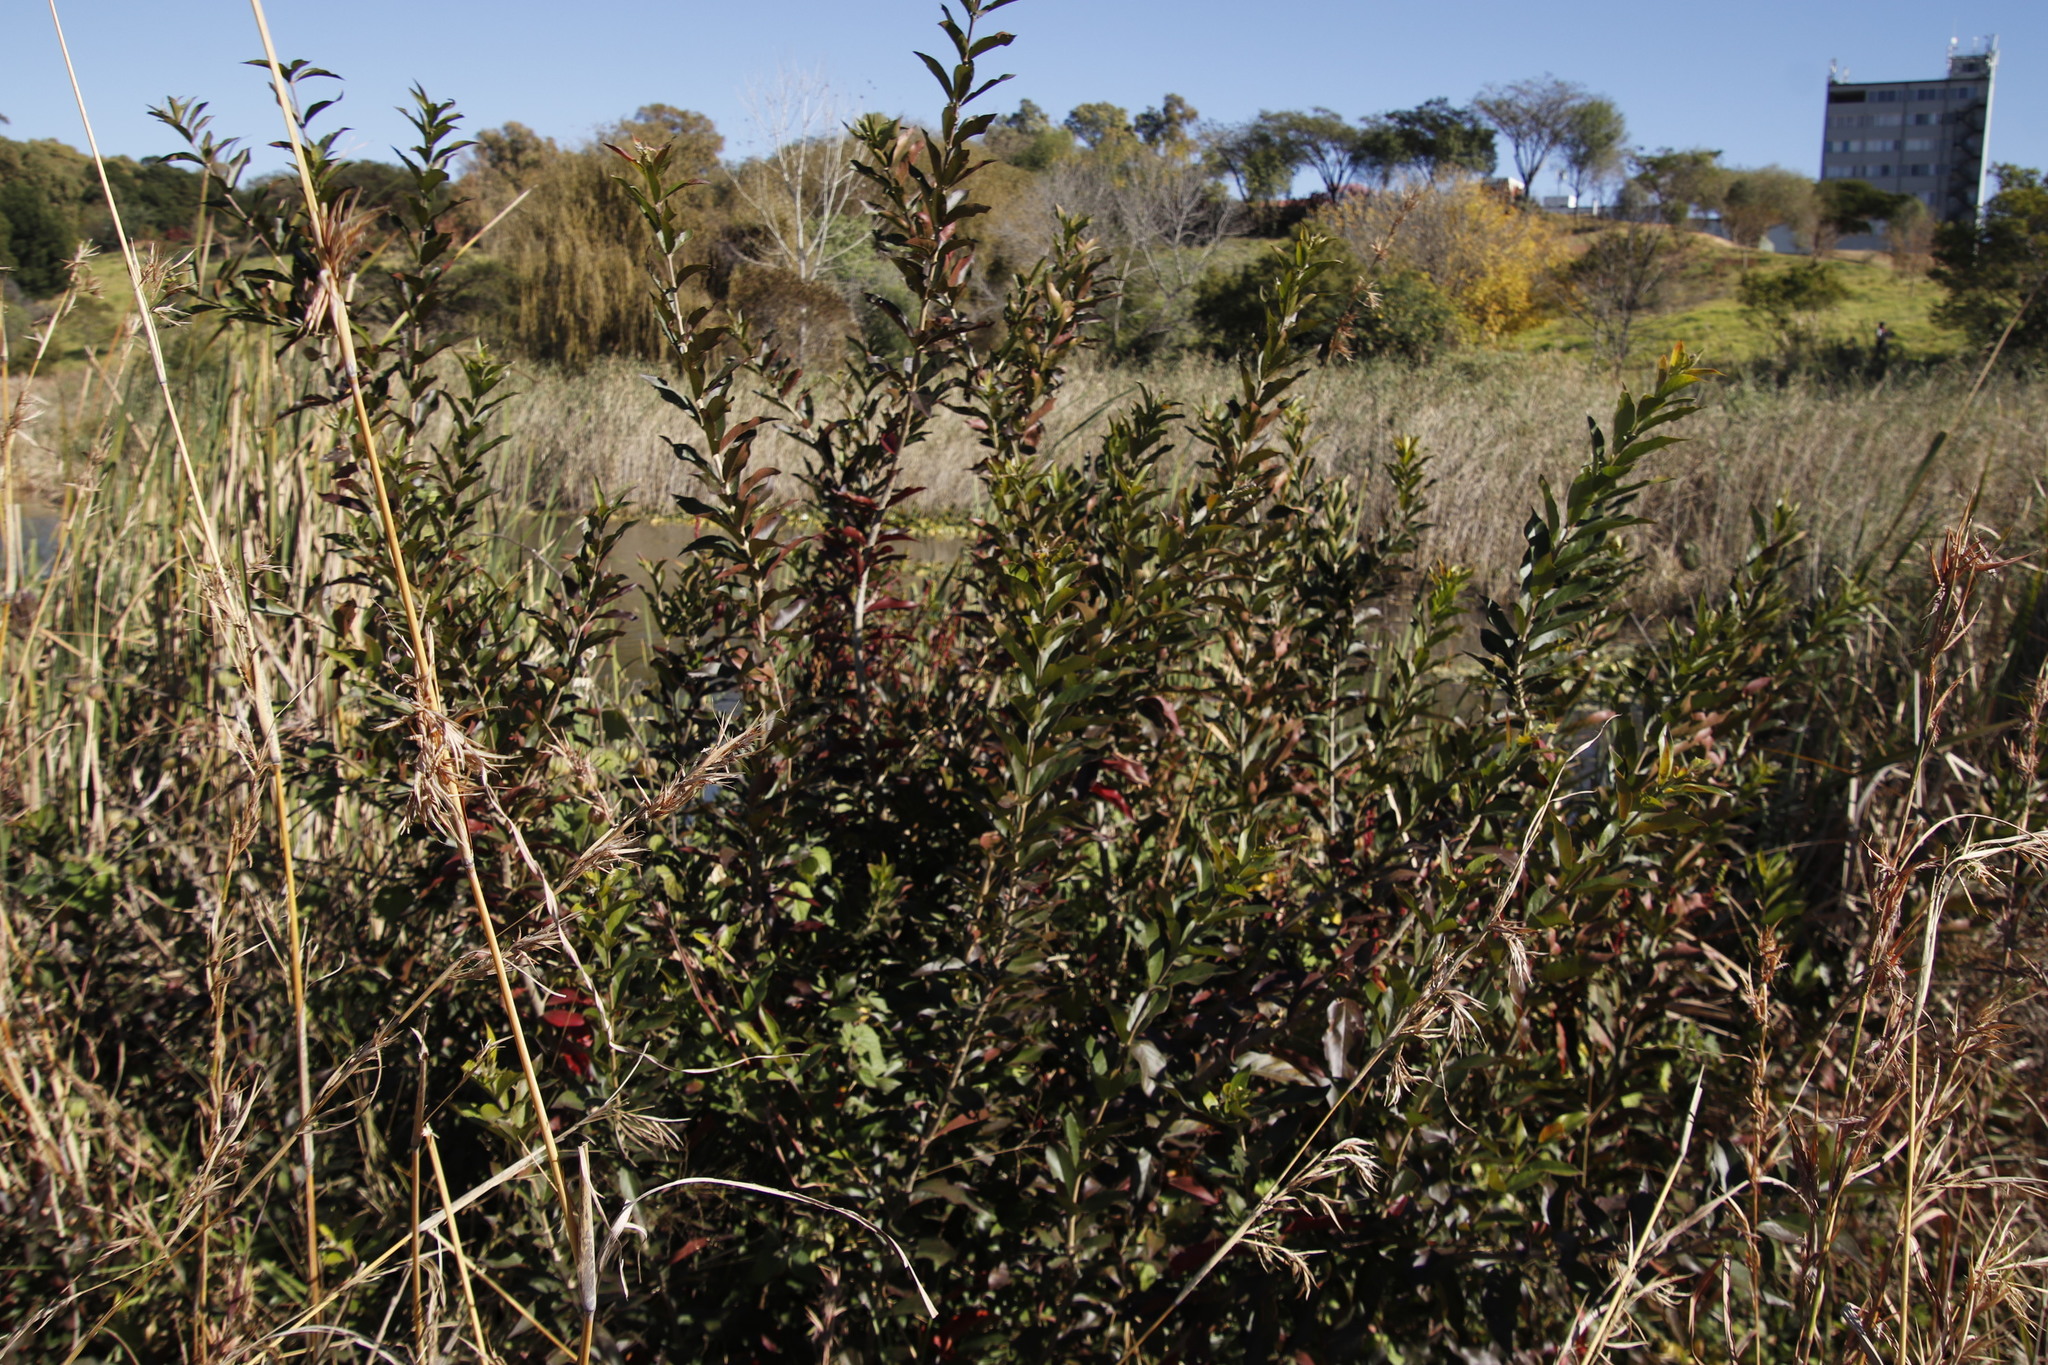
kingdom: Plantae
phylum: Tracheophyta
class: Magnoliopsida
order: Myrtales
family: Combretaceae
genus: Combretum
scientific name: Combretum erythrophyllum
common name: Bush-willow
